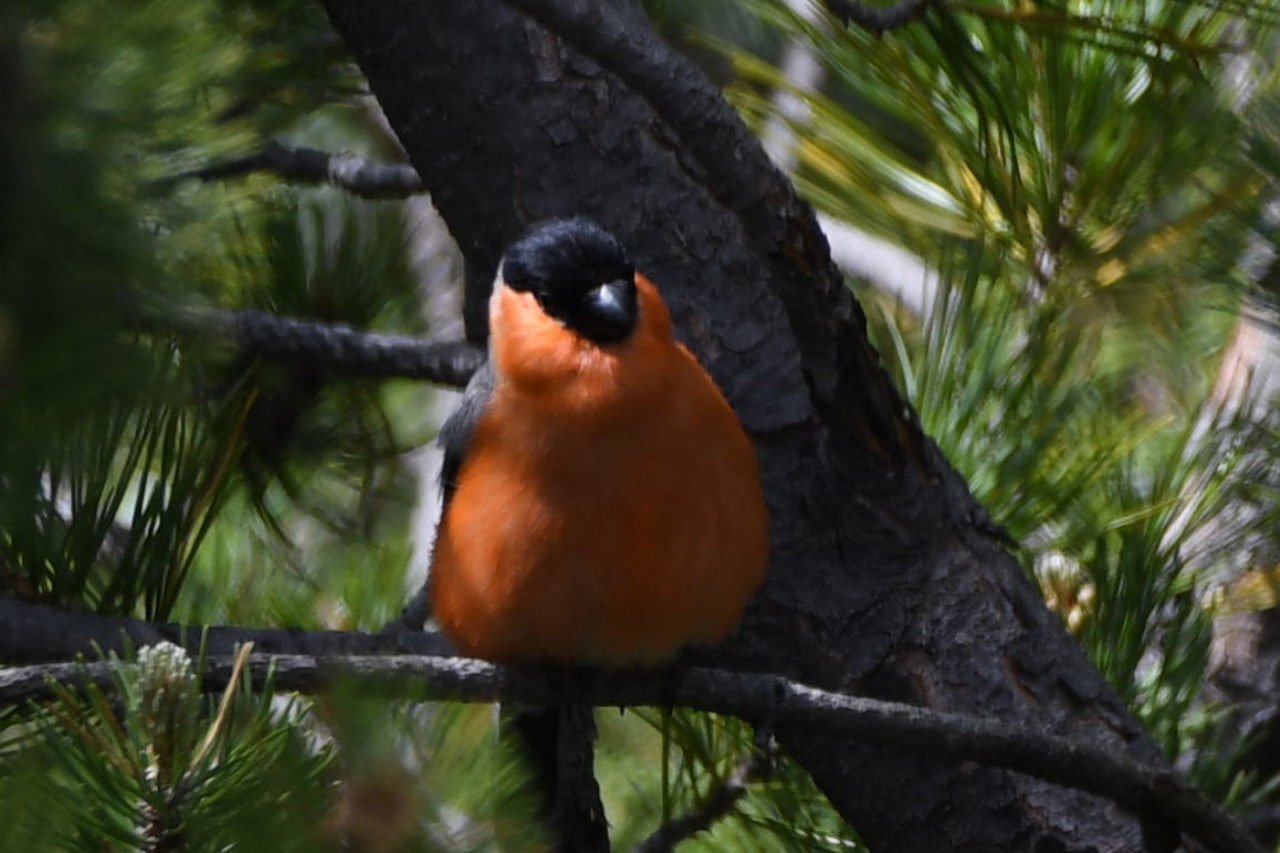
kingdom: Animalia
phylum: Chordata
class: Aves
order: Passeriformes
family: Fringillidae
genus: Pyrrhula
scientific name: Pyrrhula pyrrhula
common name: Eurasian bullfinch
